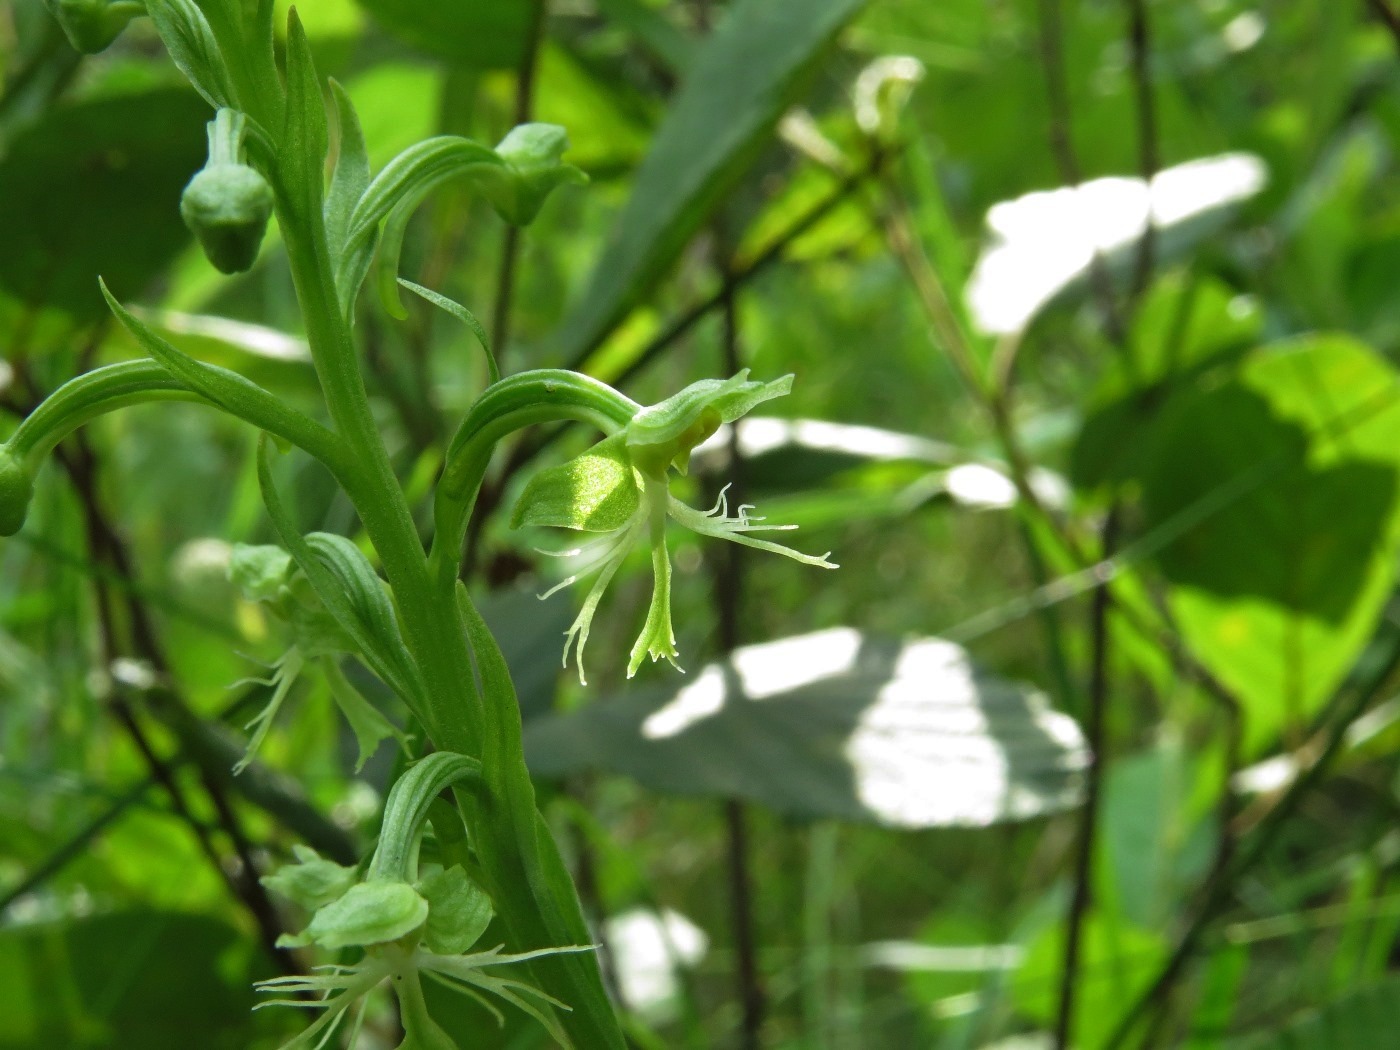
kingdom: Plantae
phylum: Tracheophyta
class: Liliopsida
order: Asparagales
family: Orchidaceae
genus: Platanthera
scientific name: Platanthera lacera
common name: Green fringed orchid
